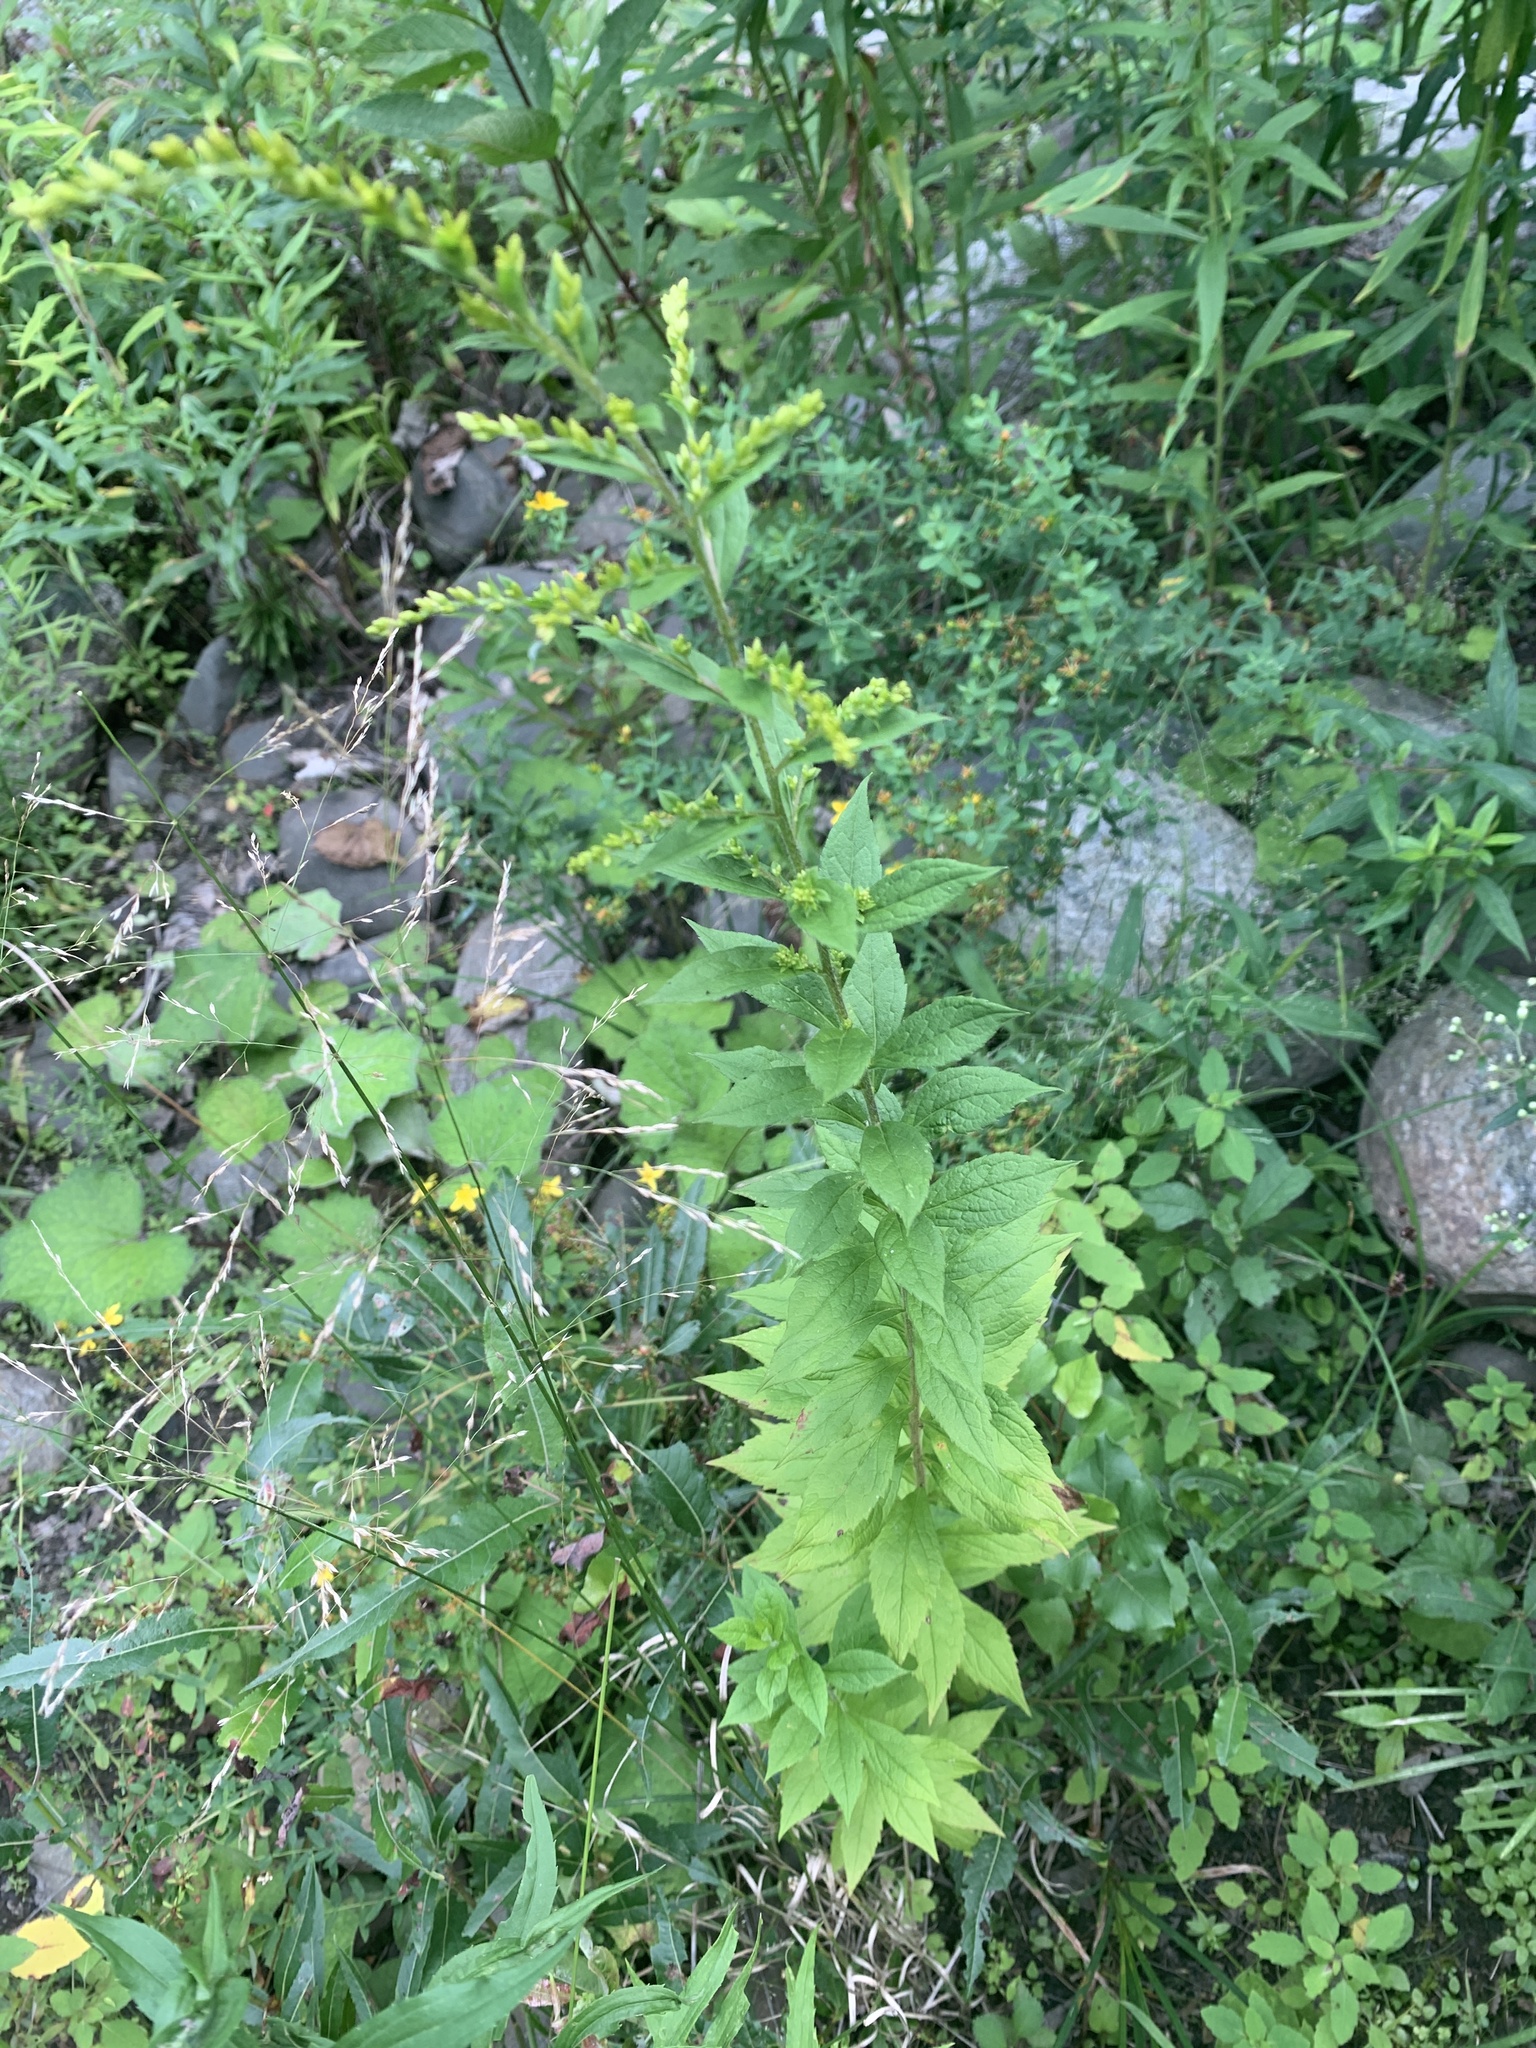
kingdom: Plantae
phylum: Tracheophyta
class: Magnoliopsida
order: Asterales
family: Asteraceae
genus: Solidago
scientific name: Solidago rugosa
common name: Rough-stemmed goldenrod
